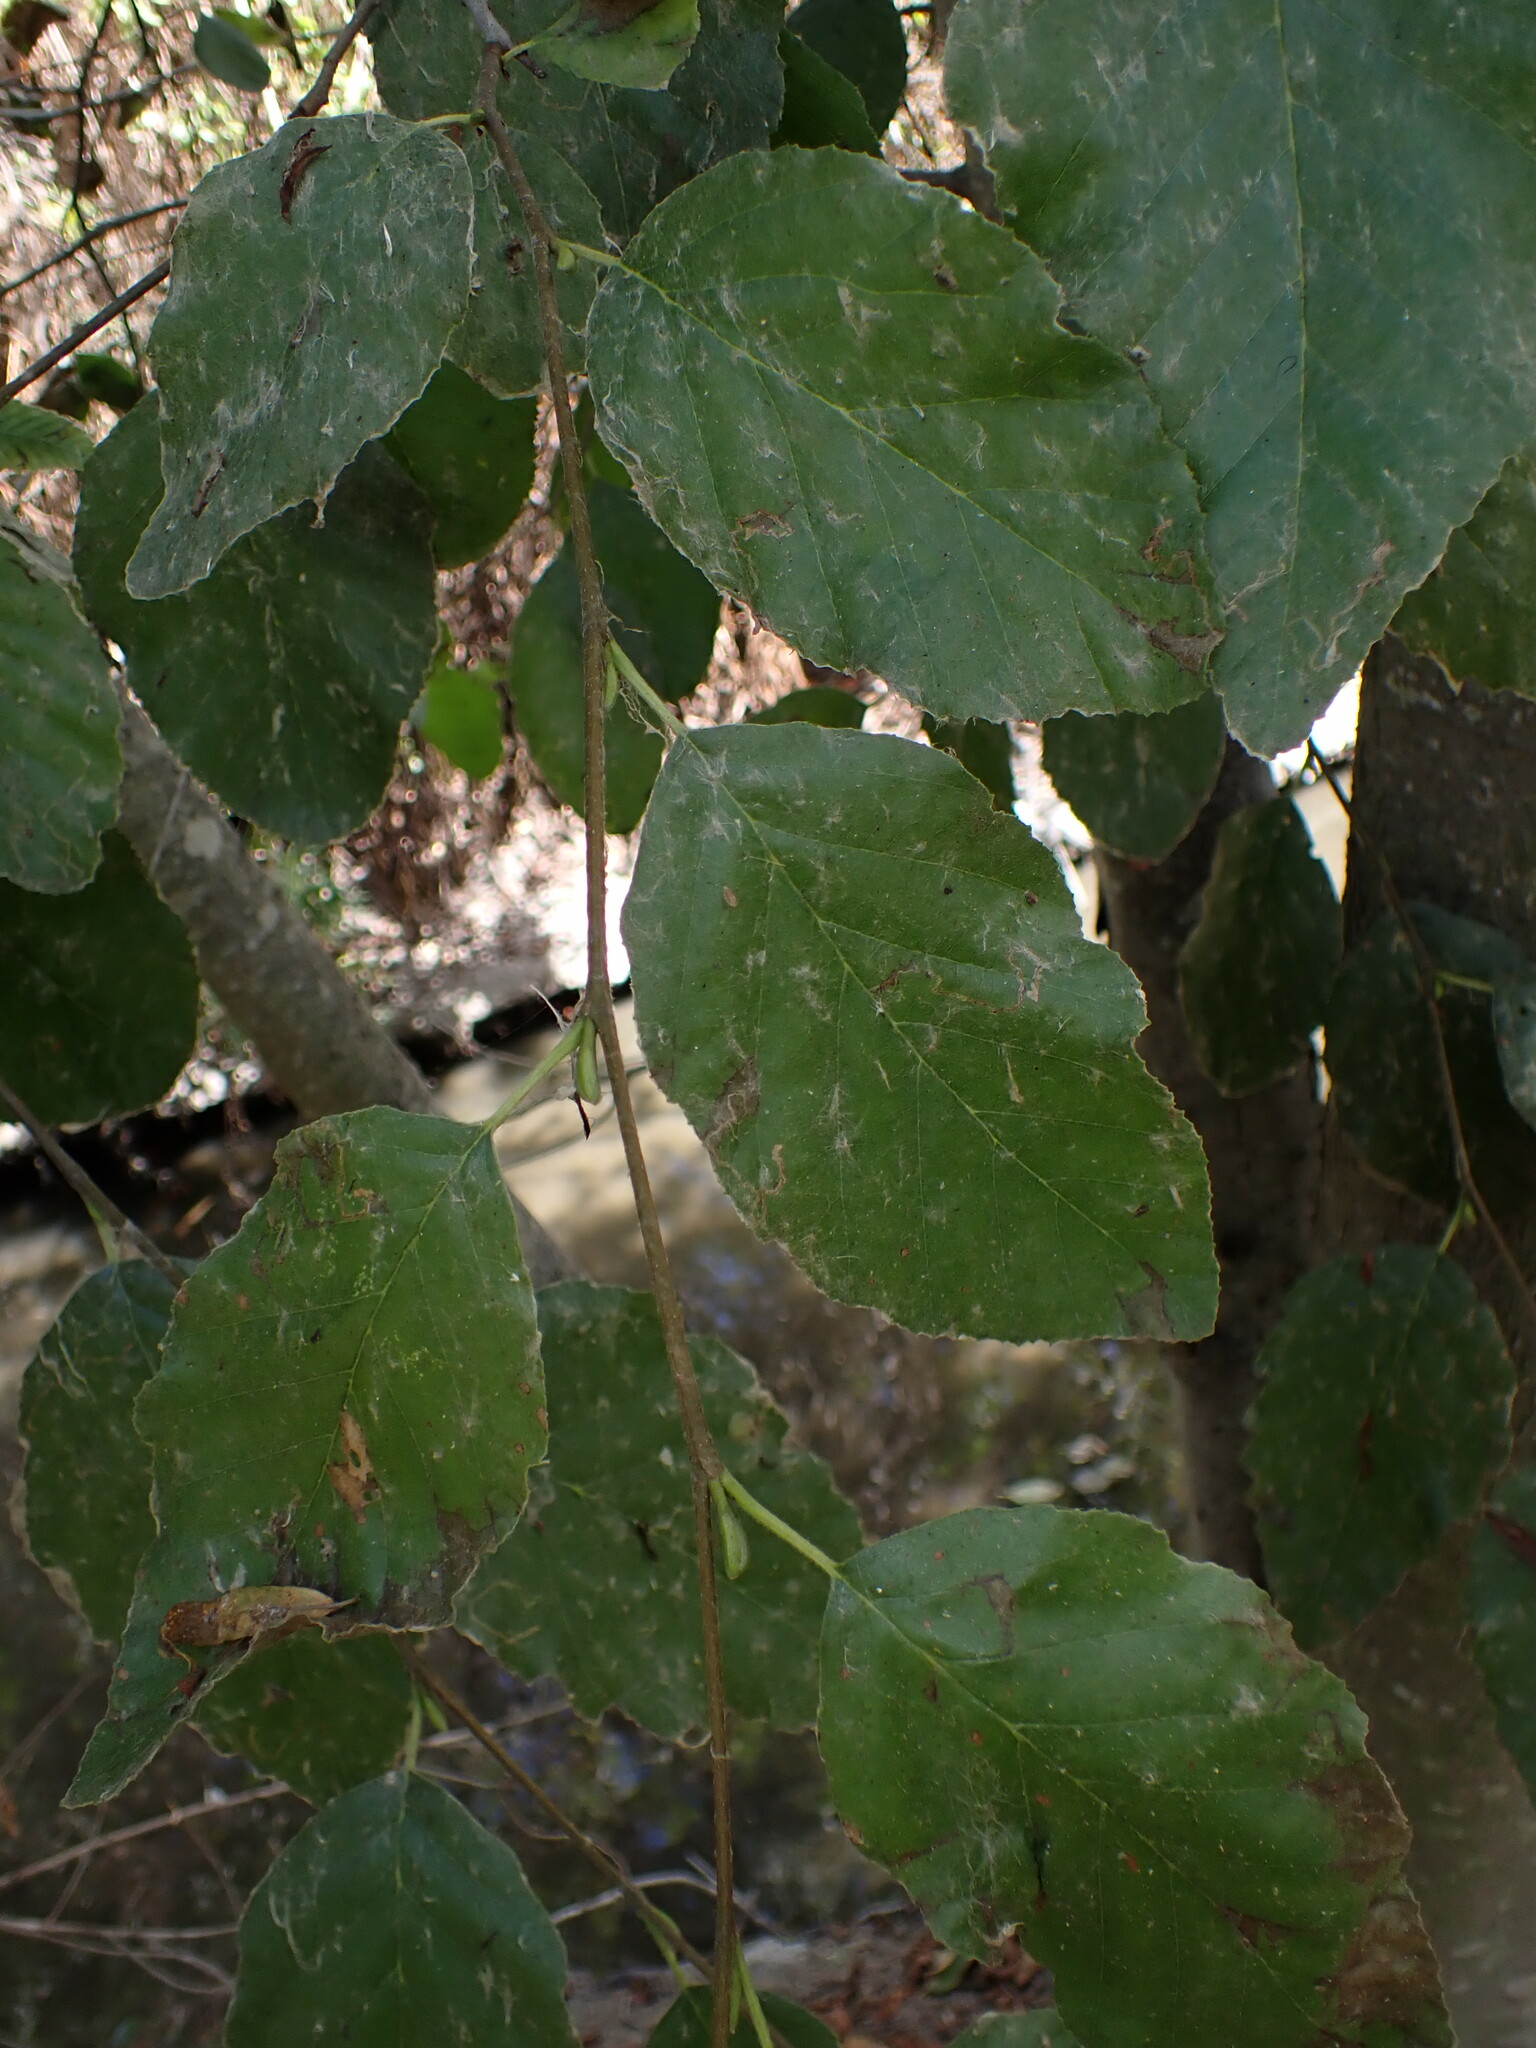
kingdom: Plantae
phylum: Tracheophyta
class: Magnoliopsida
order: Fagales
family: Betulaceae
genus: Alnus
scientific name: Alnus rhombifolia
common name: California alder
